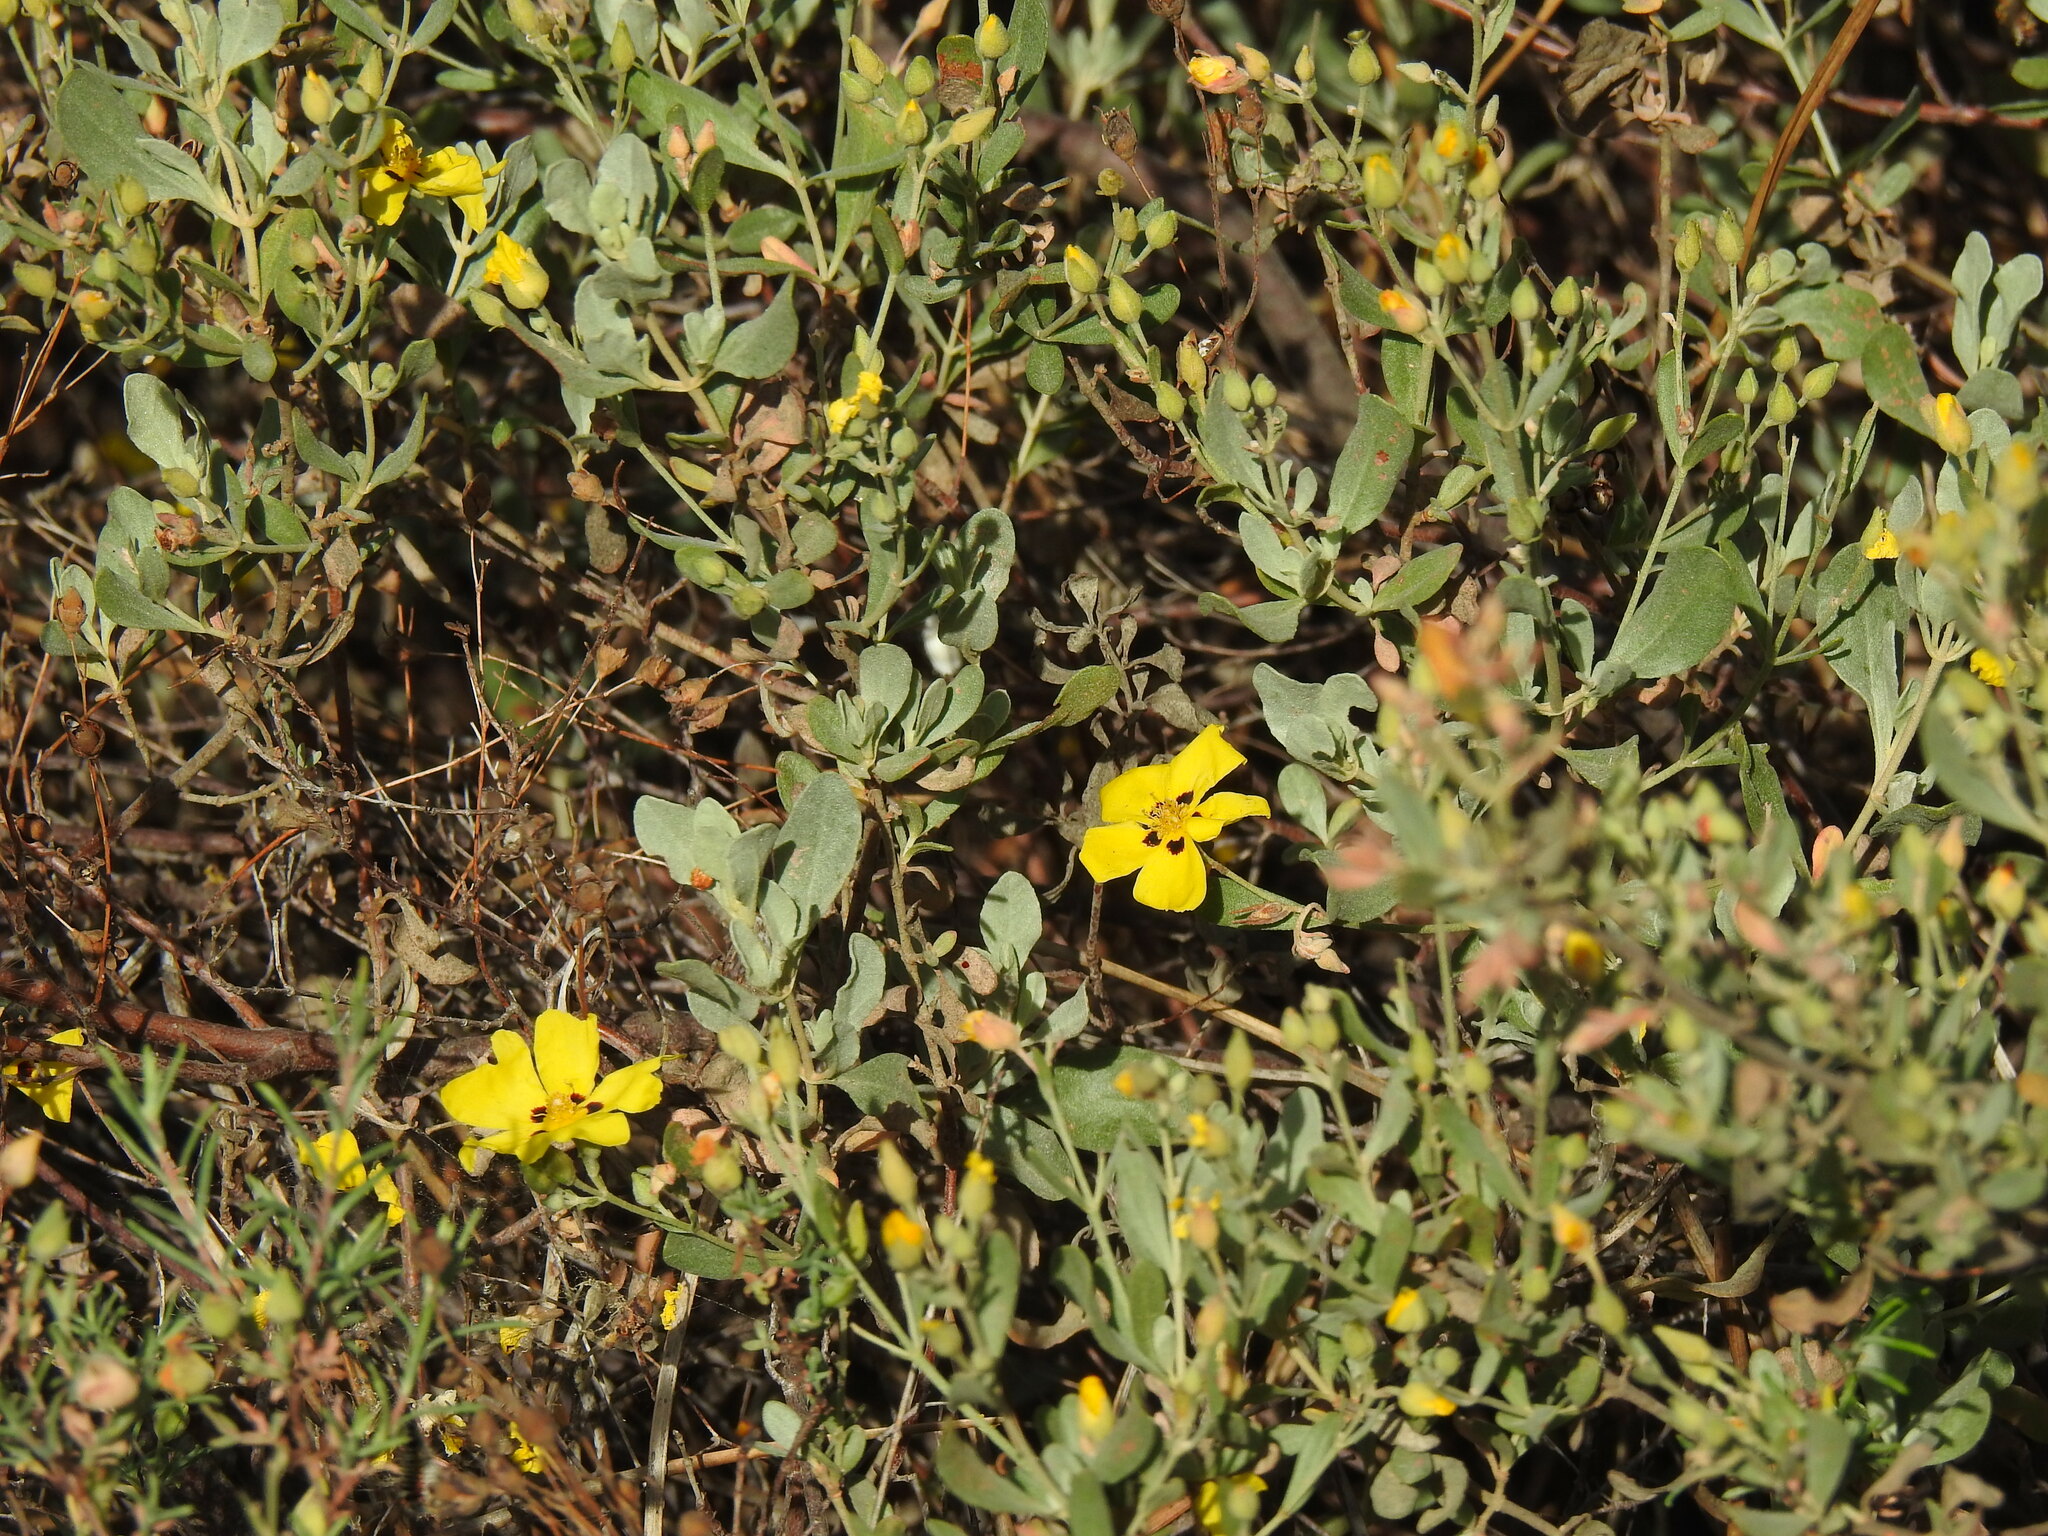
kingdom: Plantae
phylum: Tracheophyta
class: Magnoliopsida
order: Malvales
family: Cistaceae
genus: Halimium
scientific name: Halimium halimifolium
